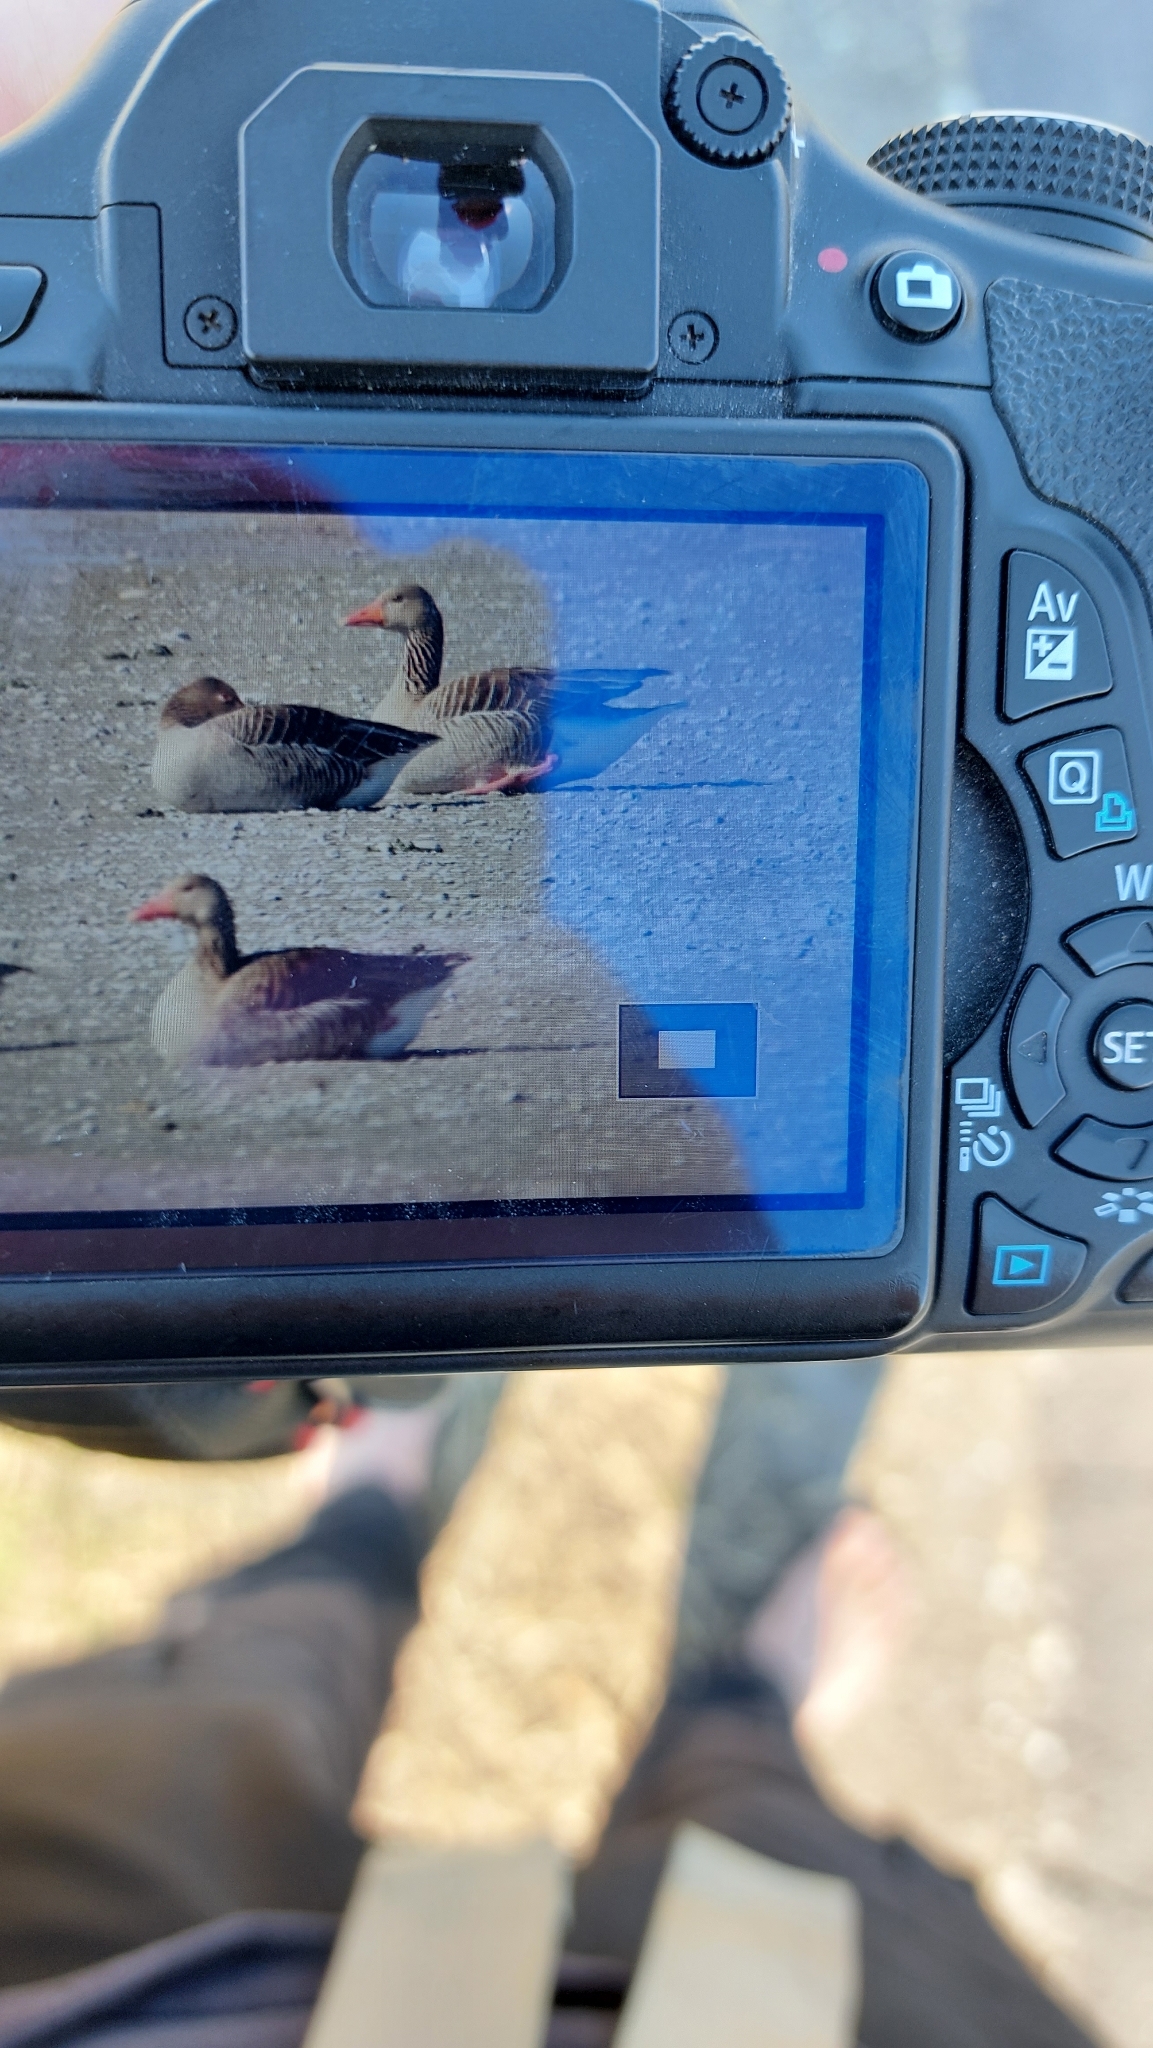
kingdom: Animalia
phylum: Chordata
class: Aves
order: Anseriformes
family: Anatidae
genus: Anser
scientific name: Anser anser
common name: Greylag goose
